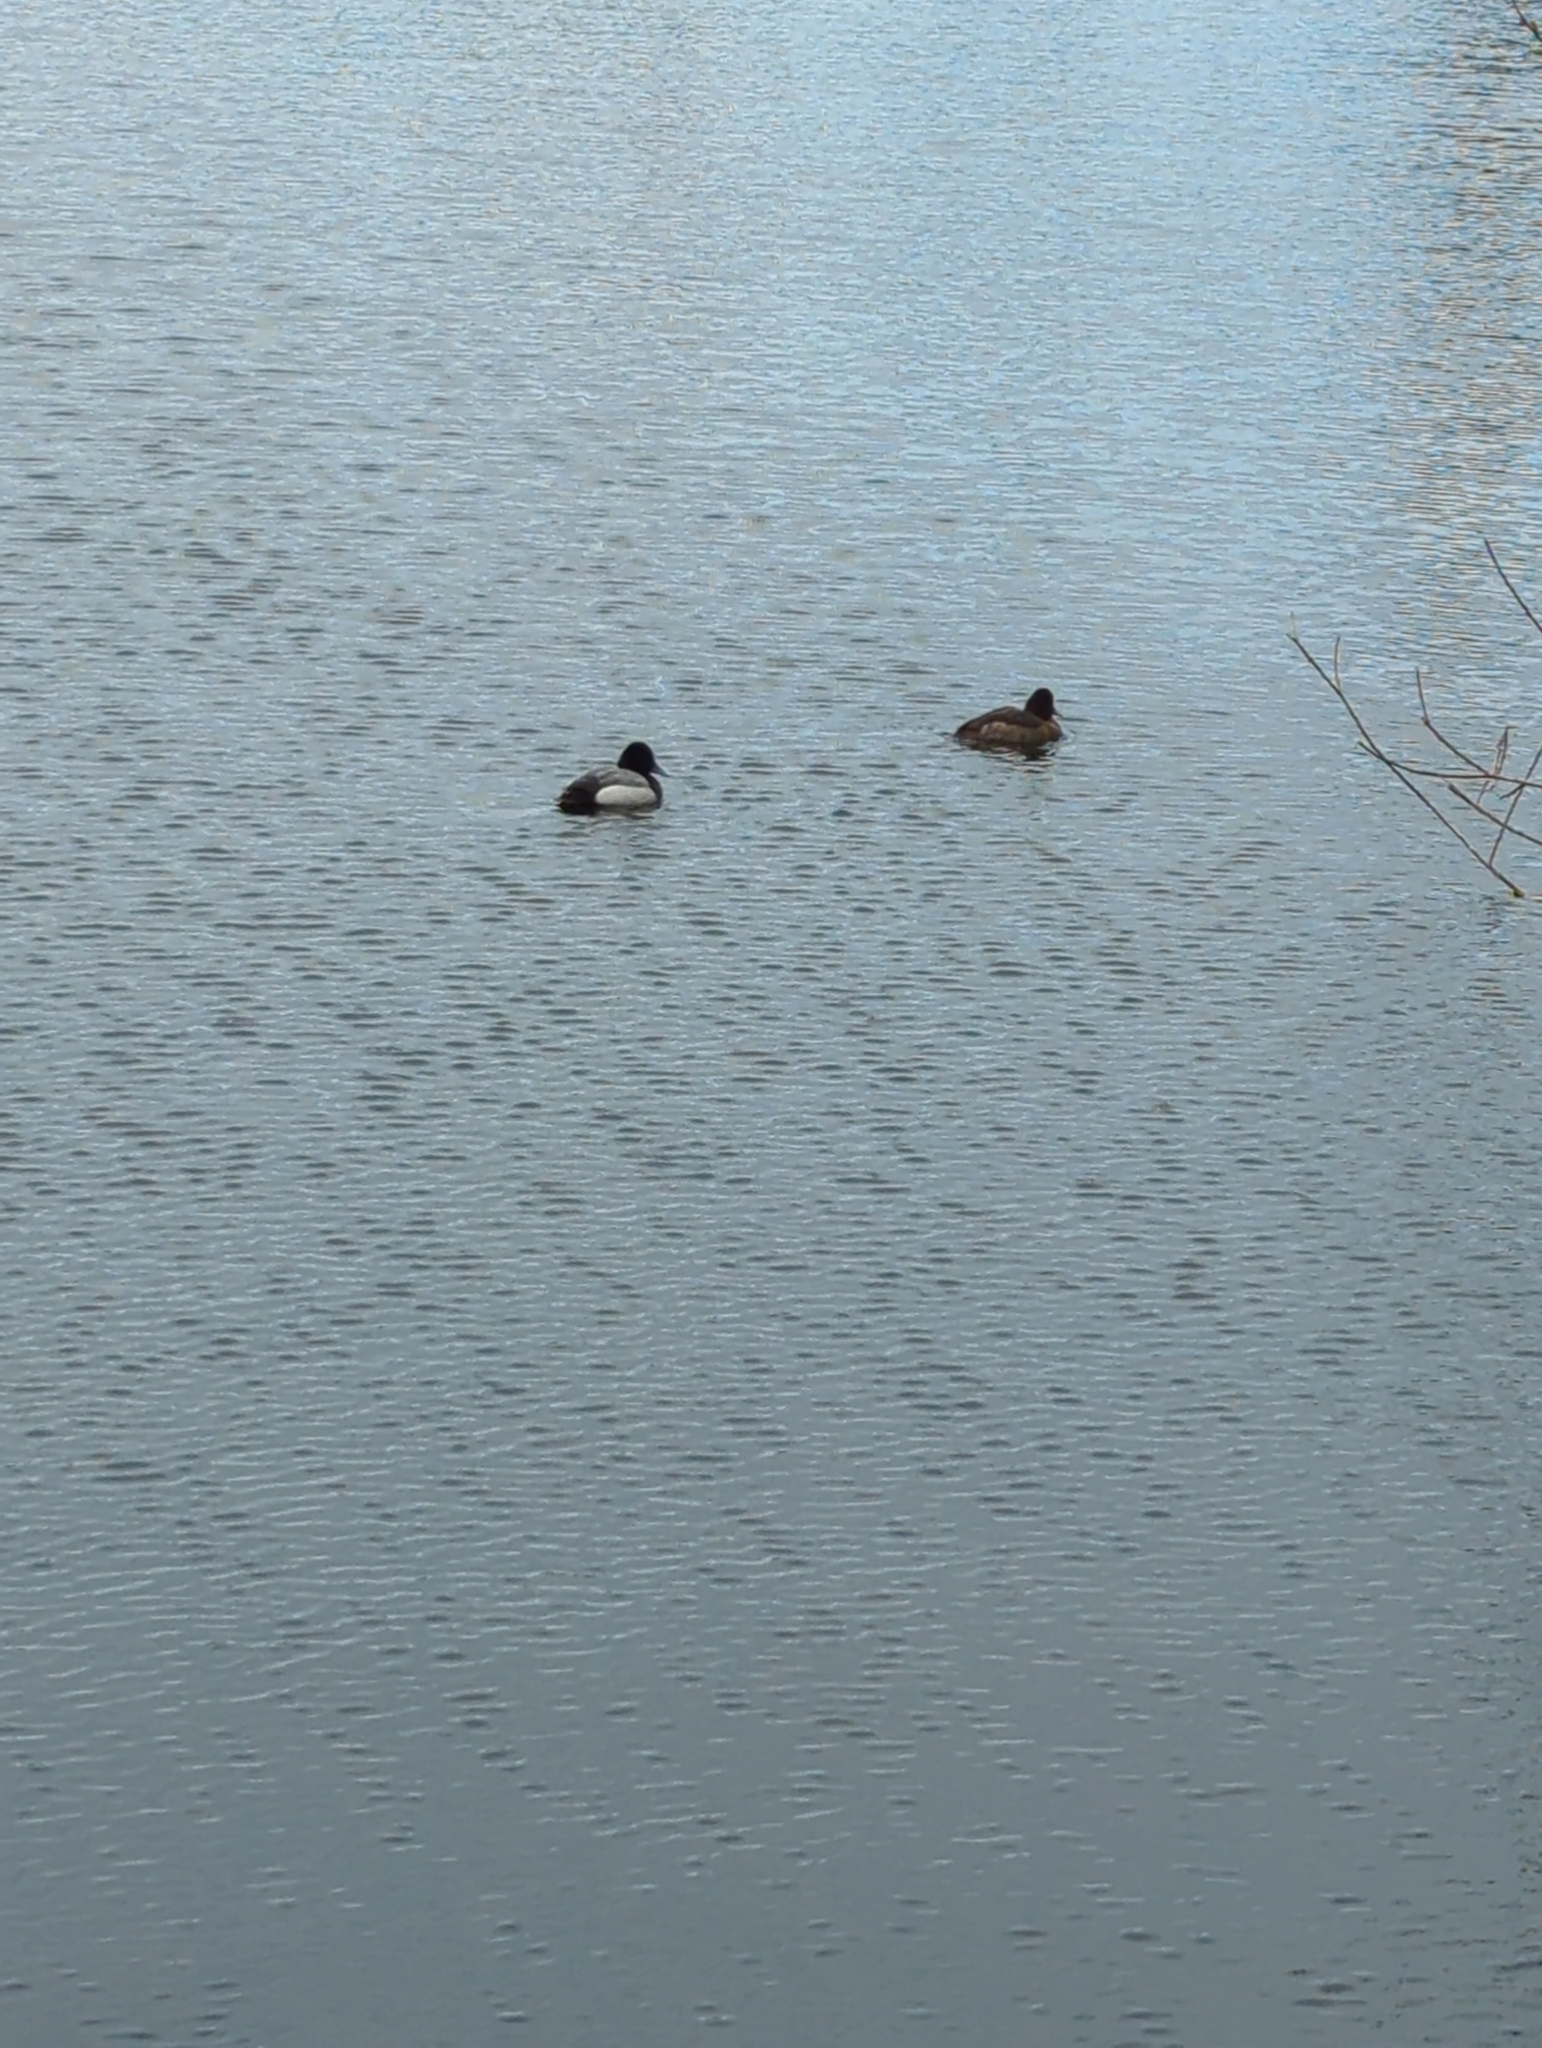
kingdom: Animalia
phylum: Chordata
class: Aves
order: Anseriformes
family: Anatidae
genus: Aythya
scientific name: Aythya affinis
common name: Lesser scaup
